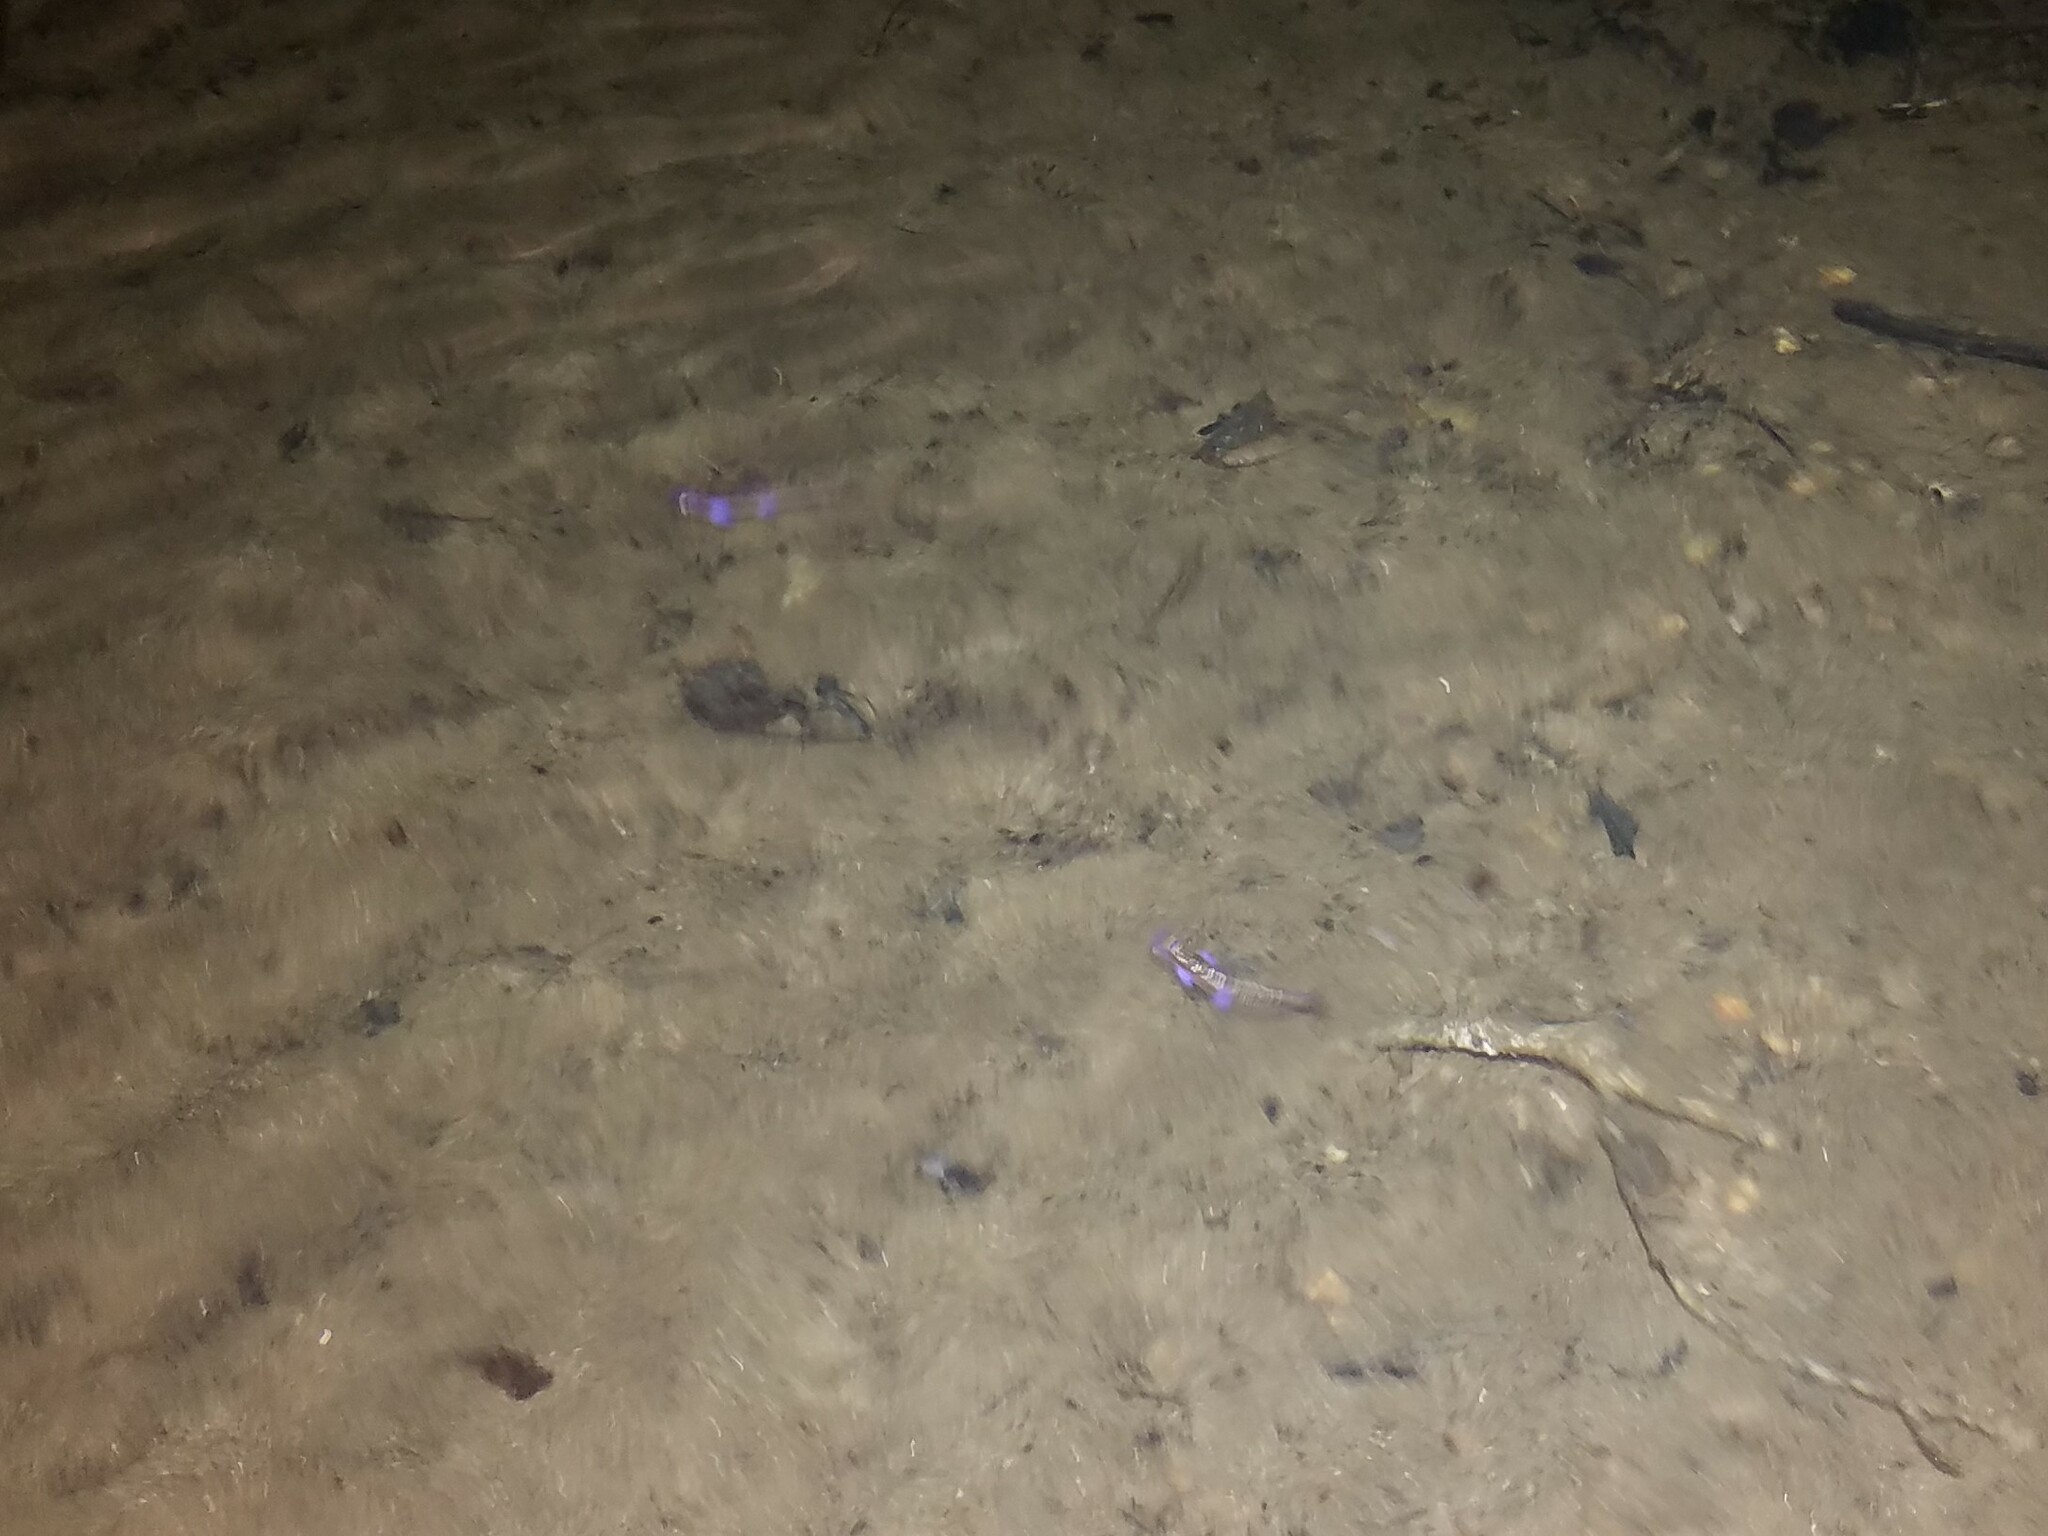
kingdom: Animalia
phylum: Chordata
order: Cypriniformes
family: Cyprinidae
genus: Notropis
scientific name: Notropis
